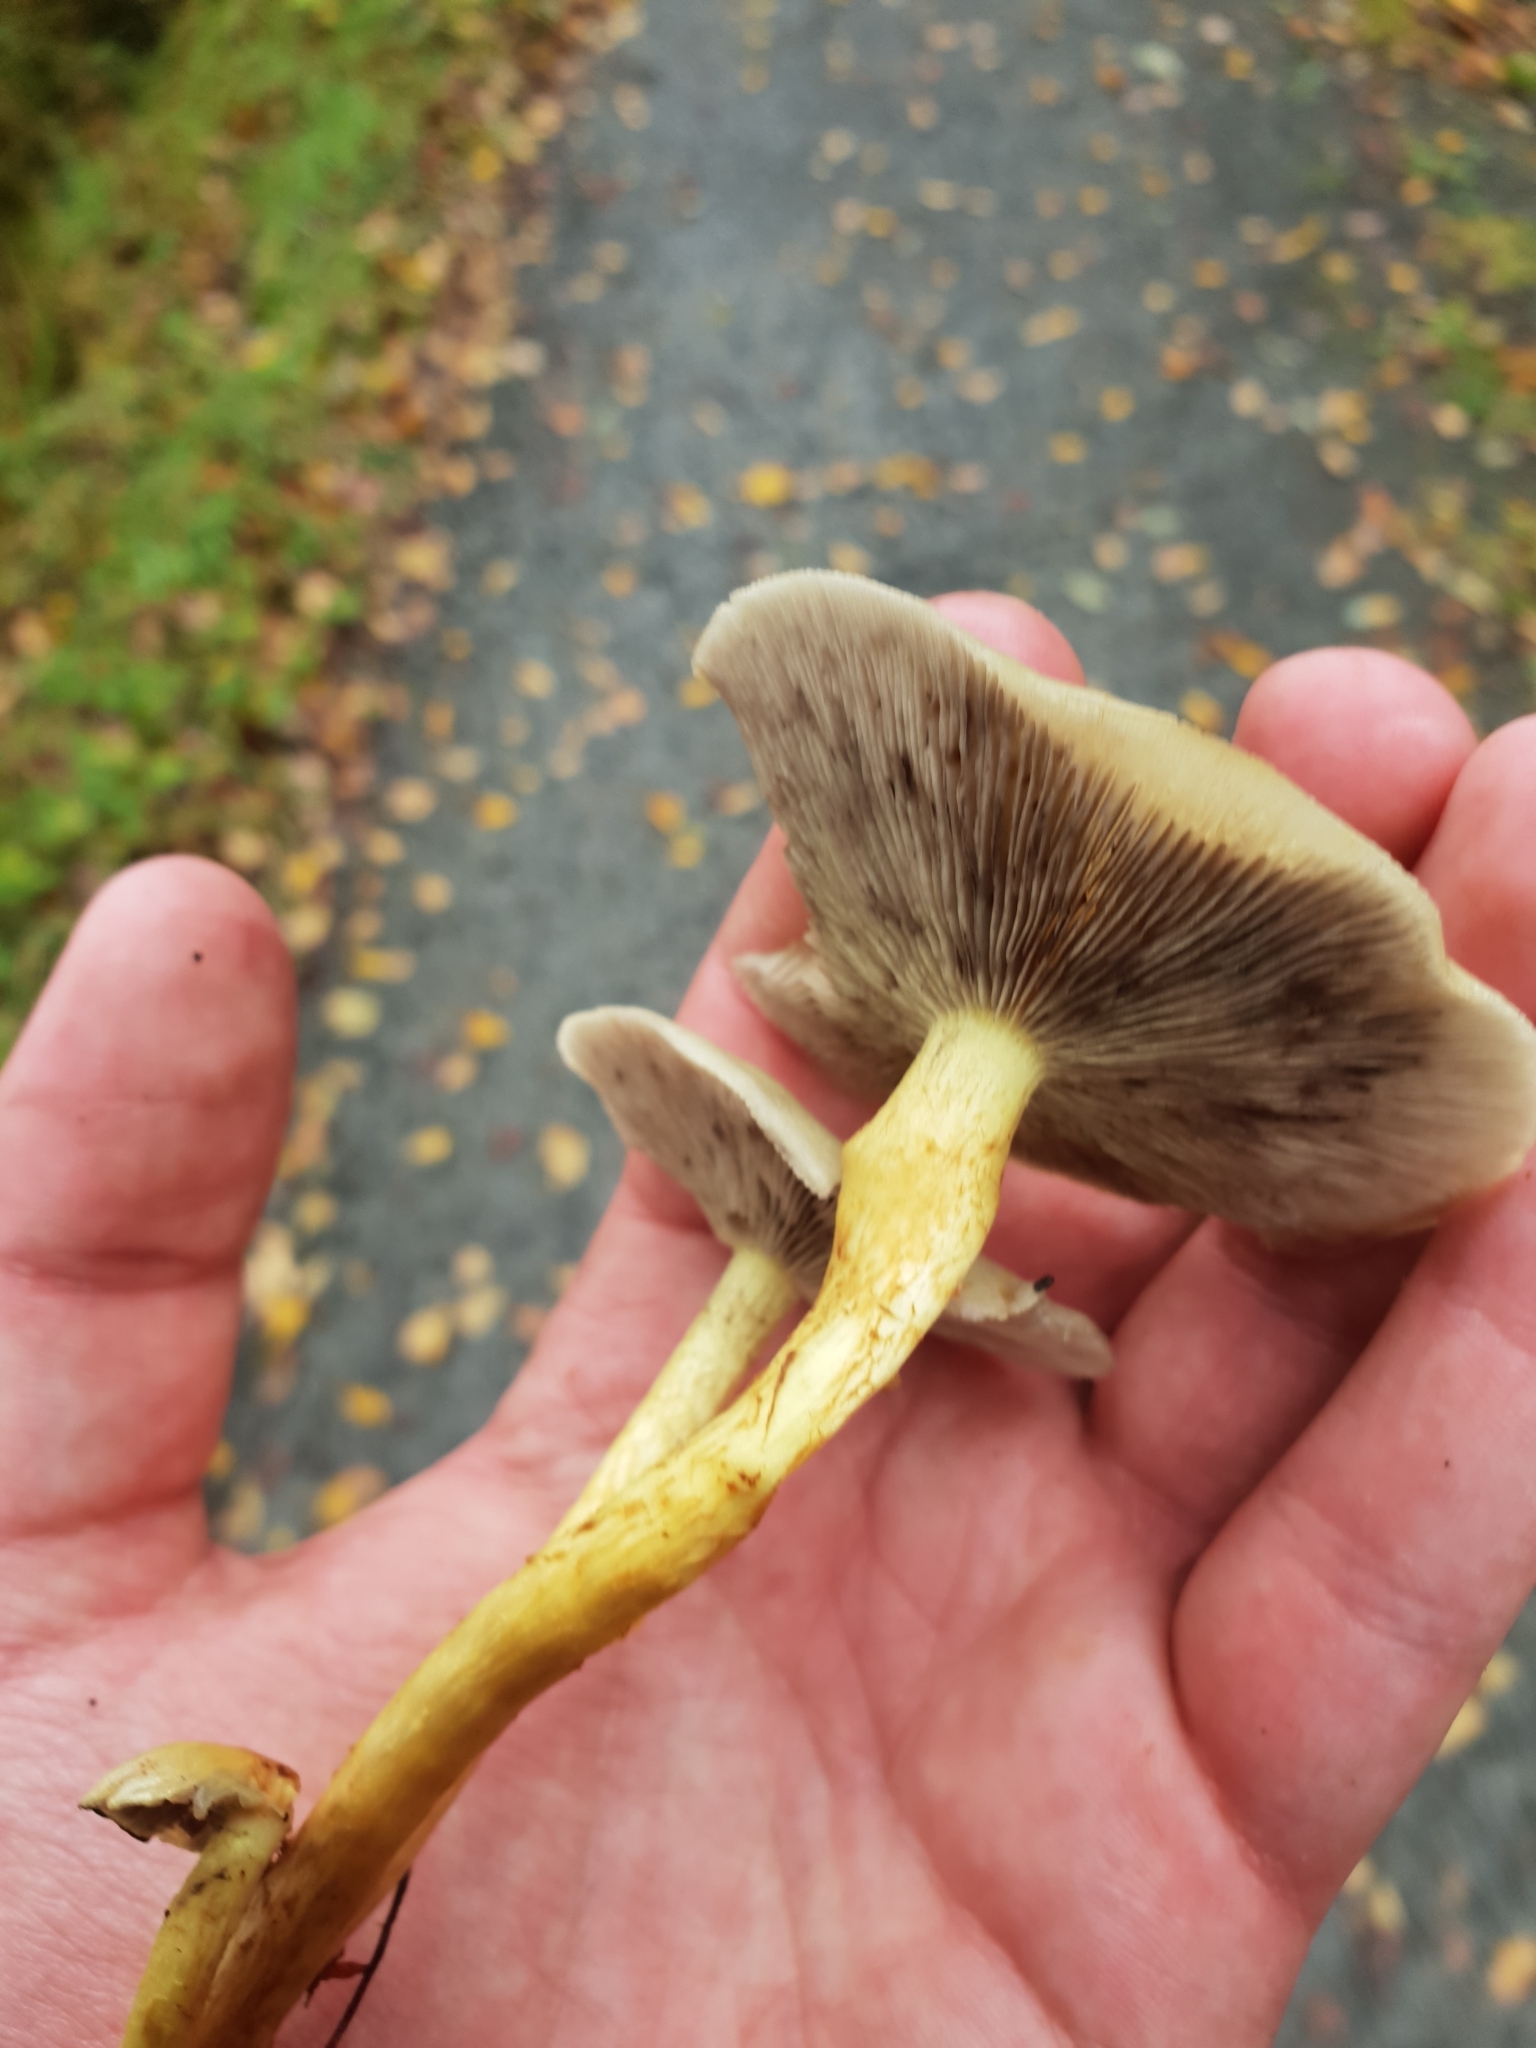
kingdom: Fungi
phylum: Basidiomycota
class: Agaricomycetes
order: Agaricales
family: Strophariaceae
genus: Hypholoma
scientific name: Hypholoma fasciculare
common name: Sulphur tuft
